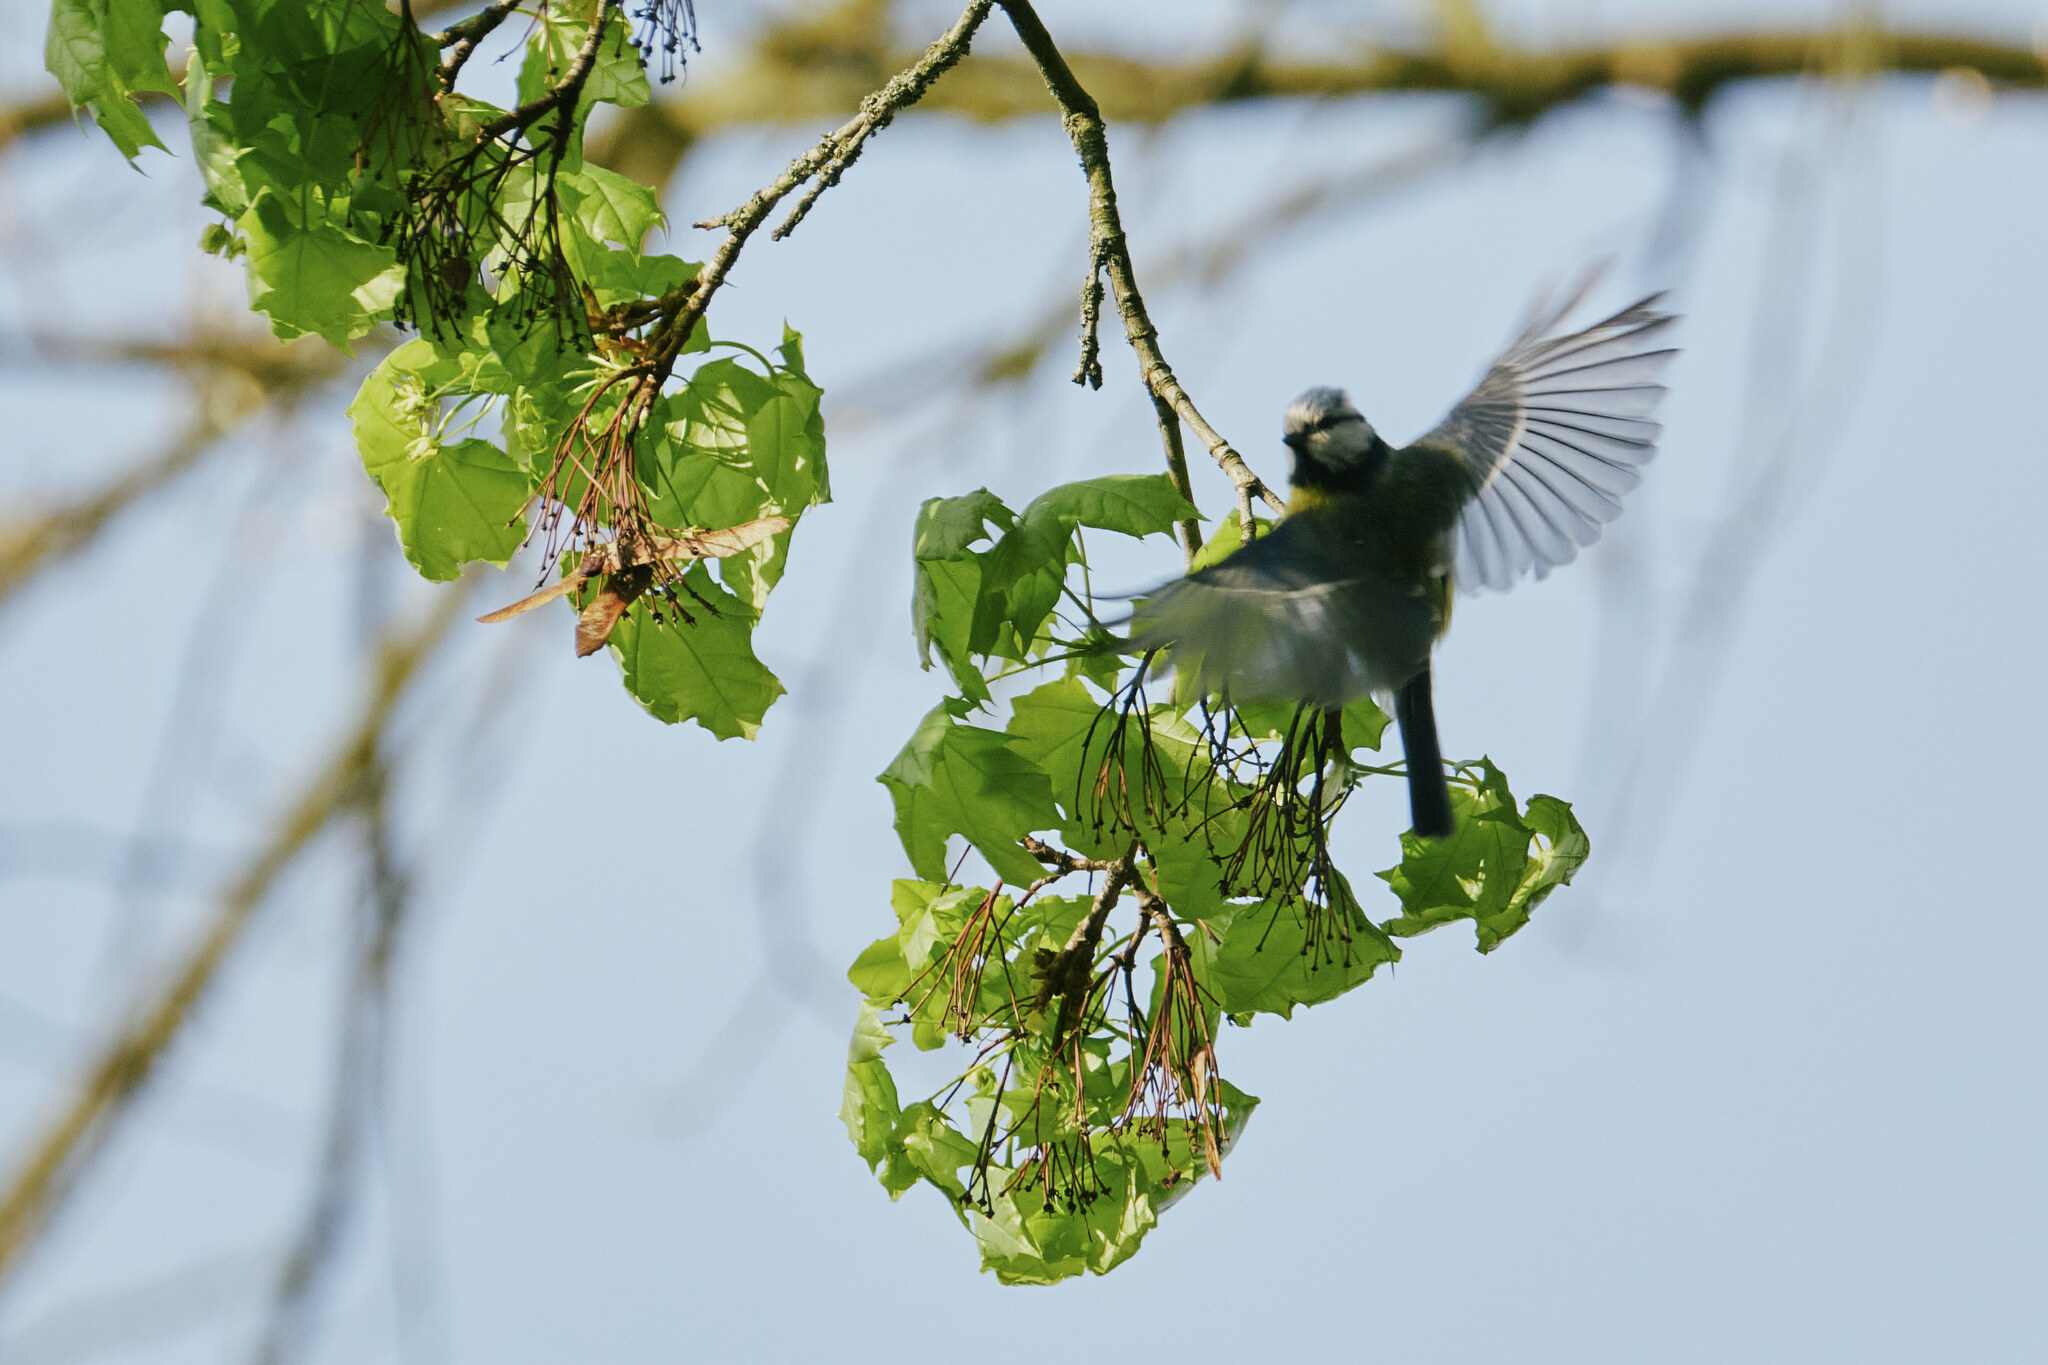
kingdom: Animalia
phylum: Chordata
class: Aves
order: Passeriformes
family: Paridae
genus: Cyanistes
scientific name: Cyanistes caeruleus
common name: Eurasian blue tit
